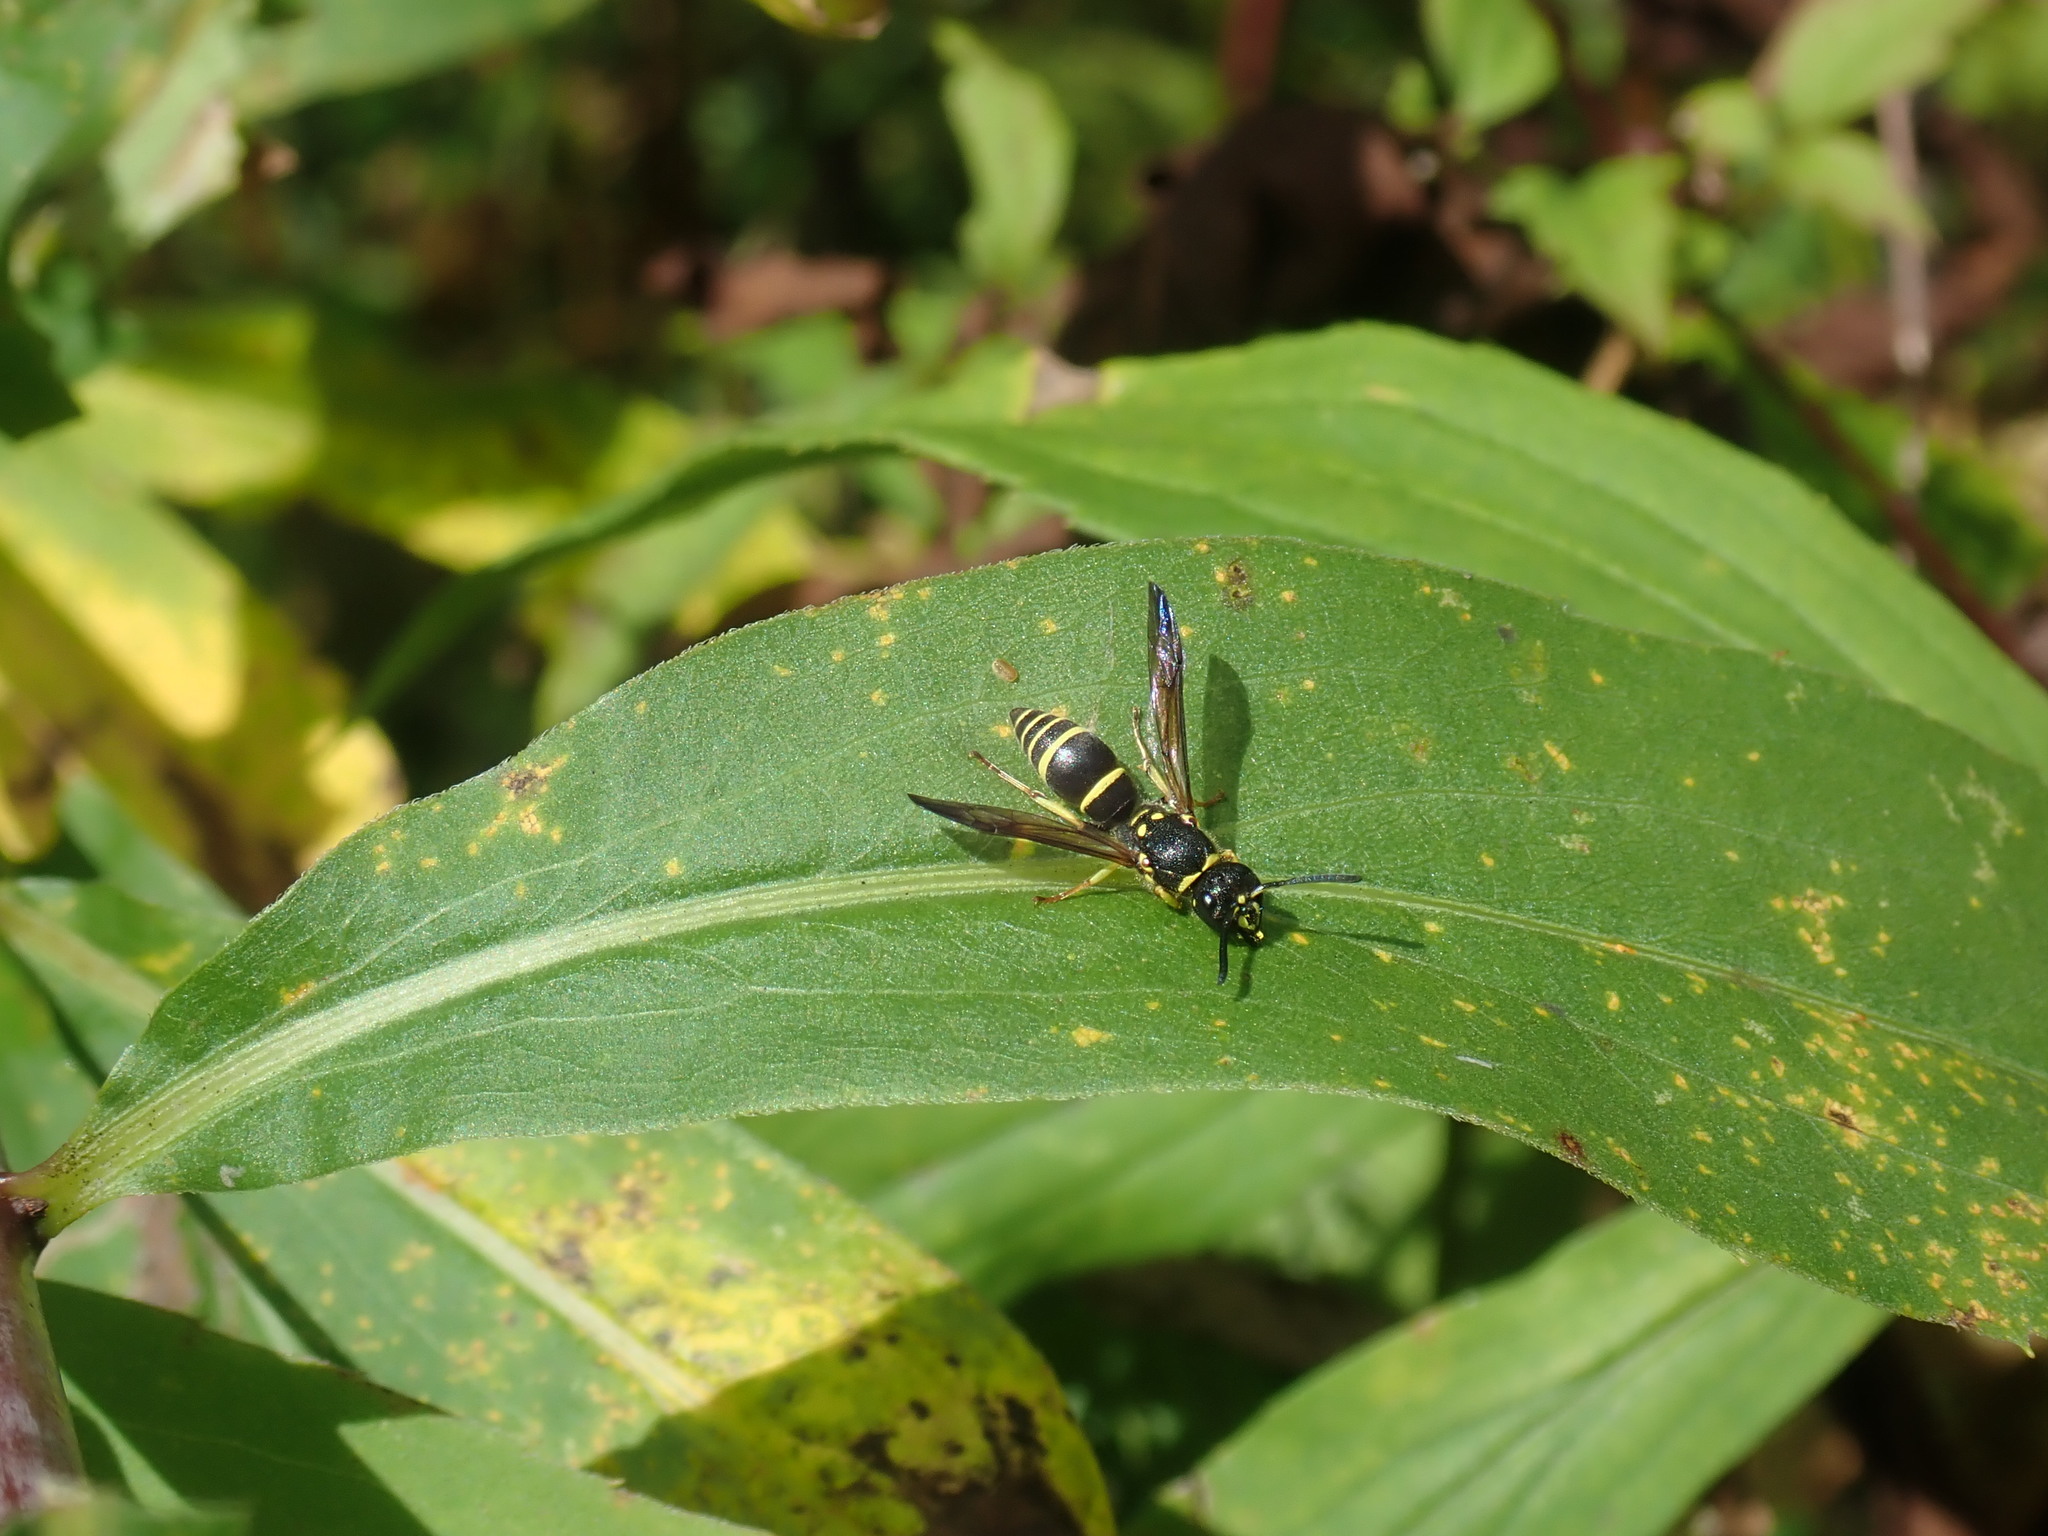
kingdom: Animalia
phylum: Arthropoda
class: Insecta
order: Hymenoptera
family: Vespidae
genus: Ancistrocerus
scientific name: Ancistrocerus adiabatus
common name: Bramble mason wasp
